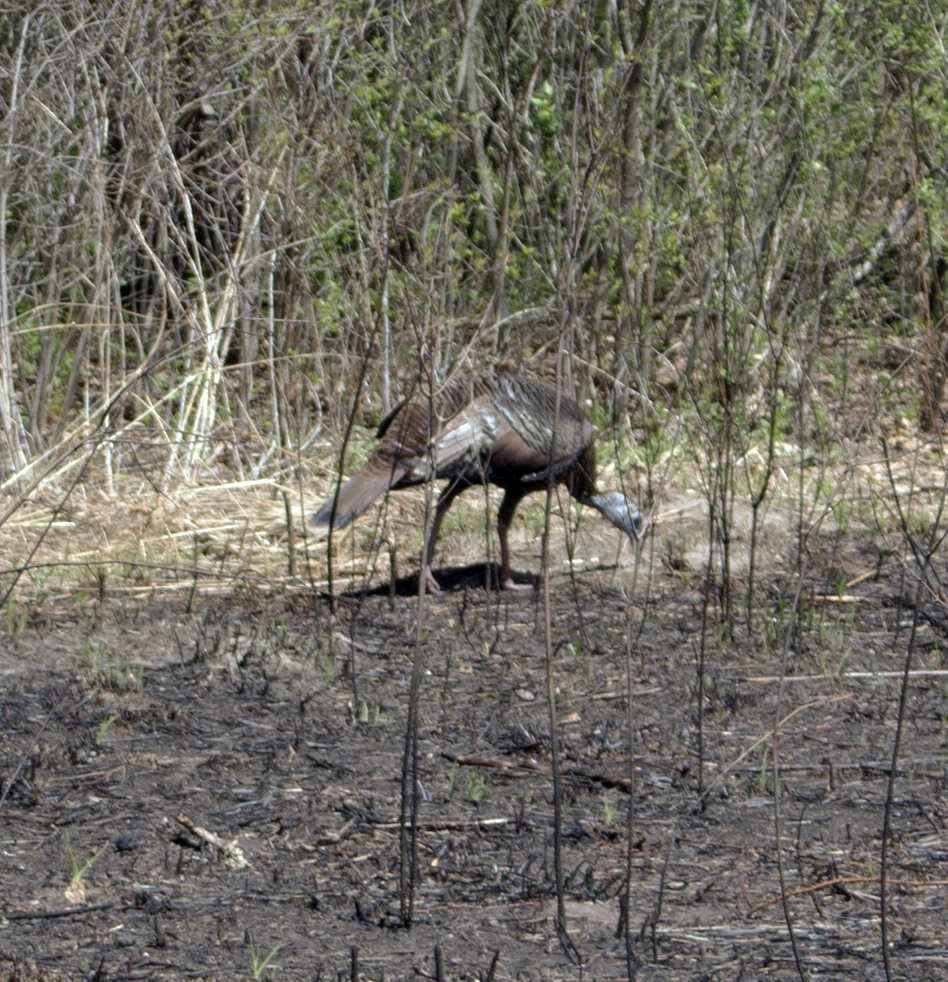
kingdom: Animalia
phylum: Chordata
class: Aves
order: Galliformes
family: Phasianidae
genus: Meleagris
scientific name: Meleagris gallopavo
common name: Wild turkey
